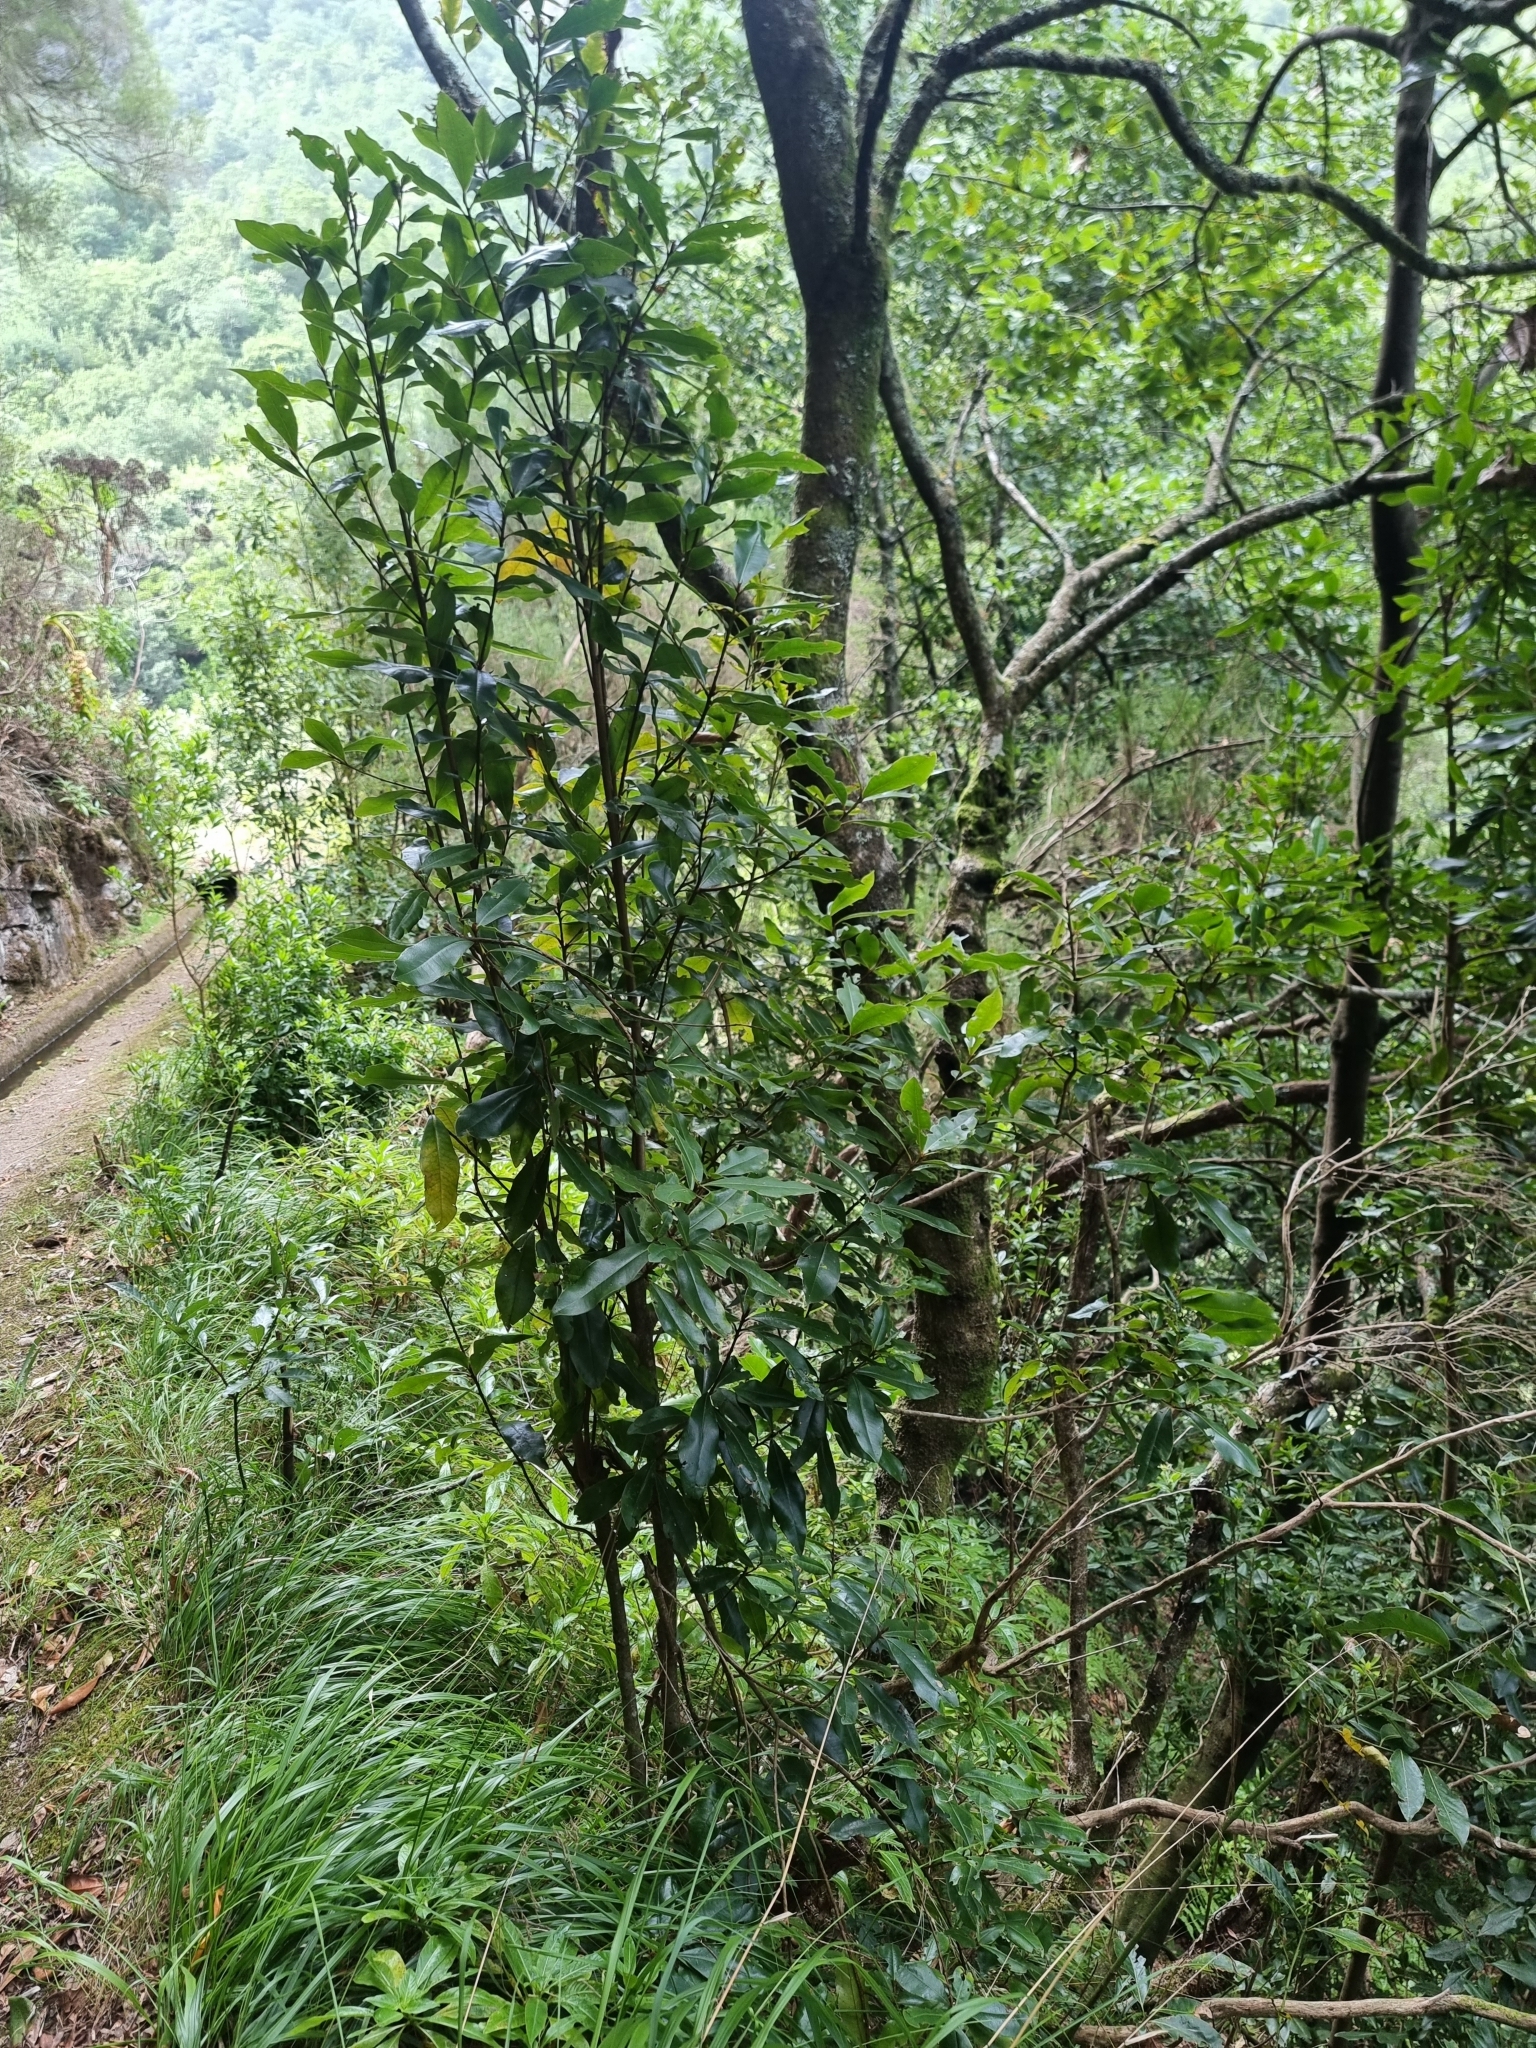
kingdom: Plantae
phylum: Tracheophyta
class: Magnoliopsida
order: Ericales
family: Primulaceae
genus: Heberdenia
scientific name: Heberdenia excelsa
